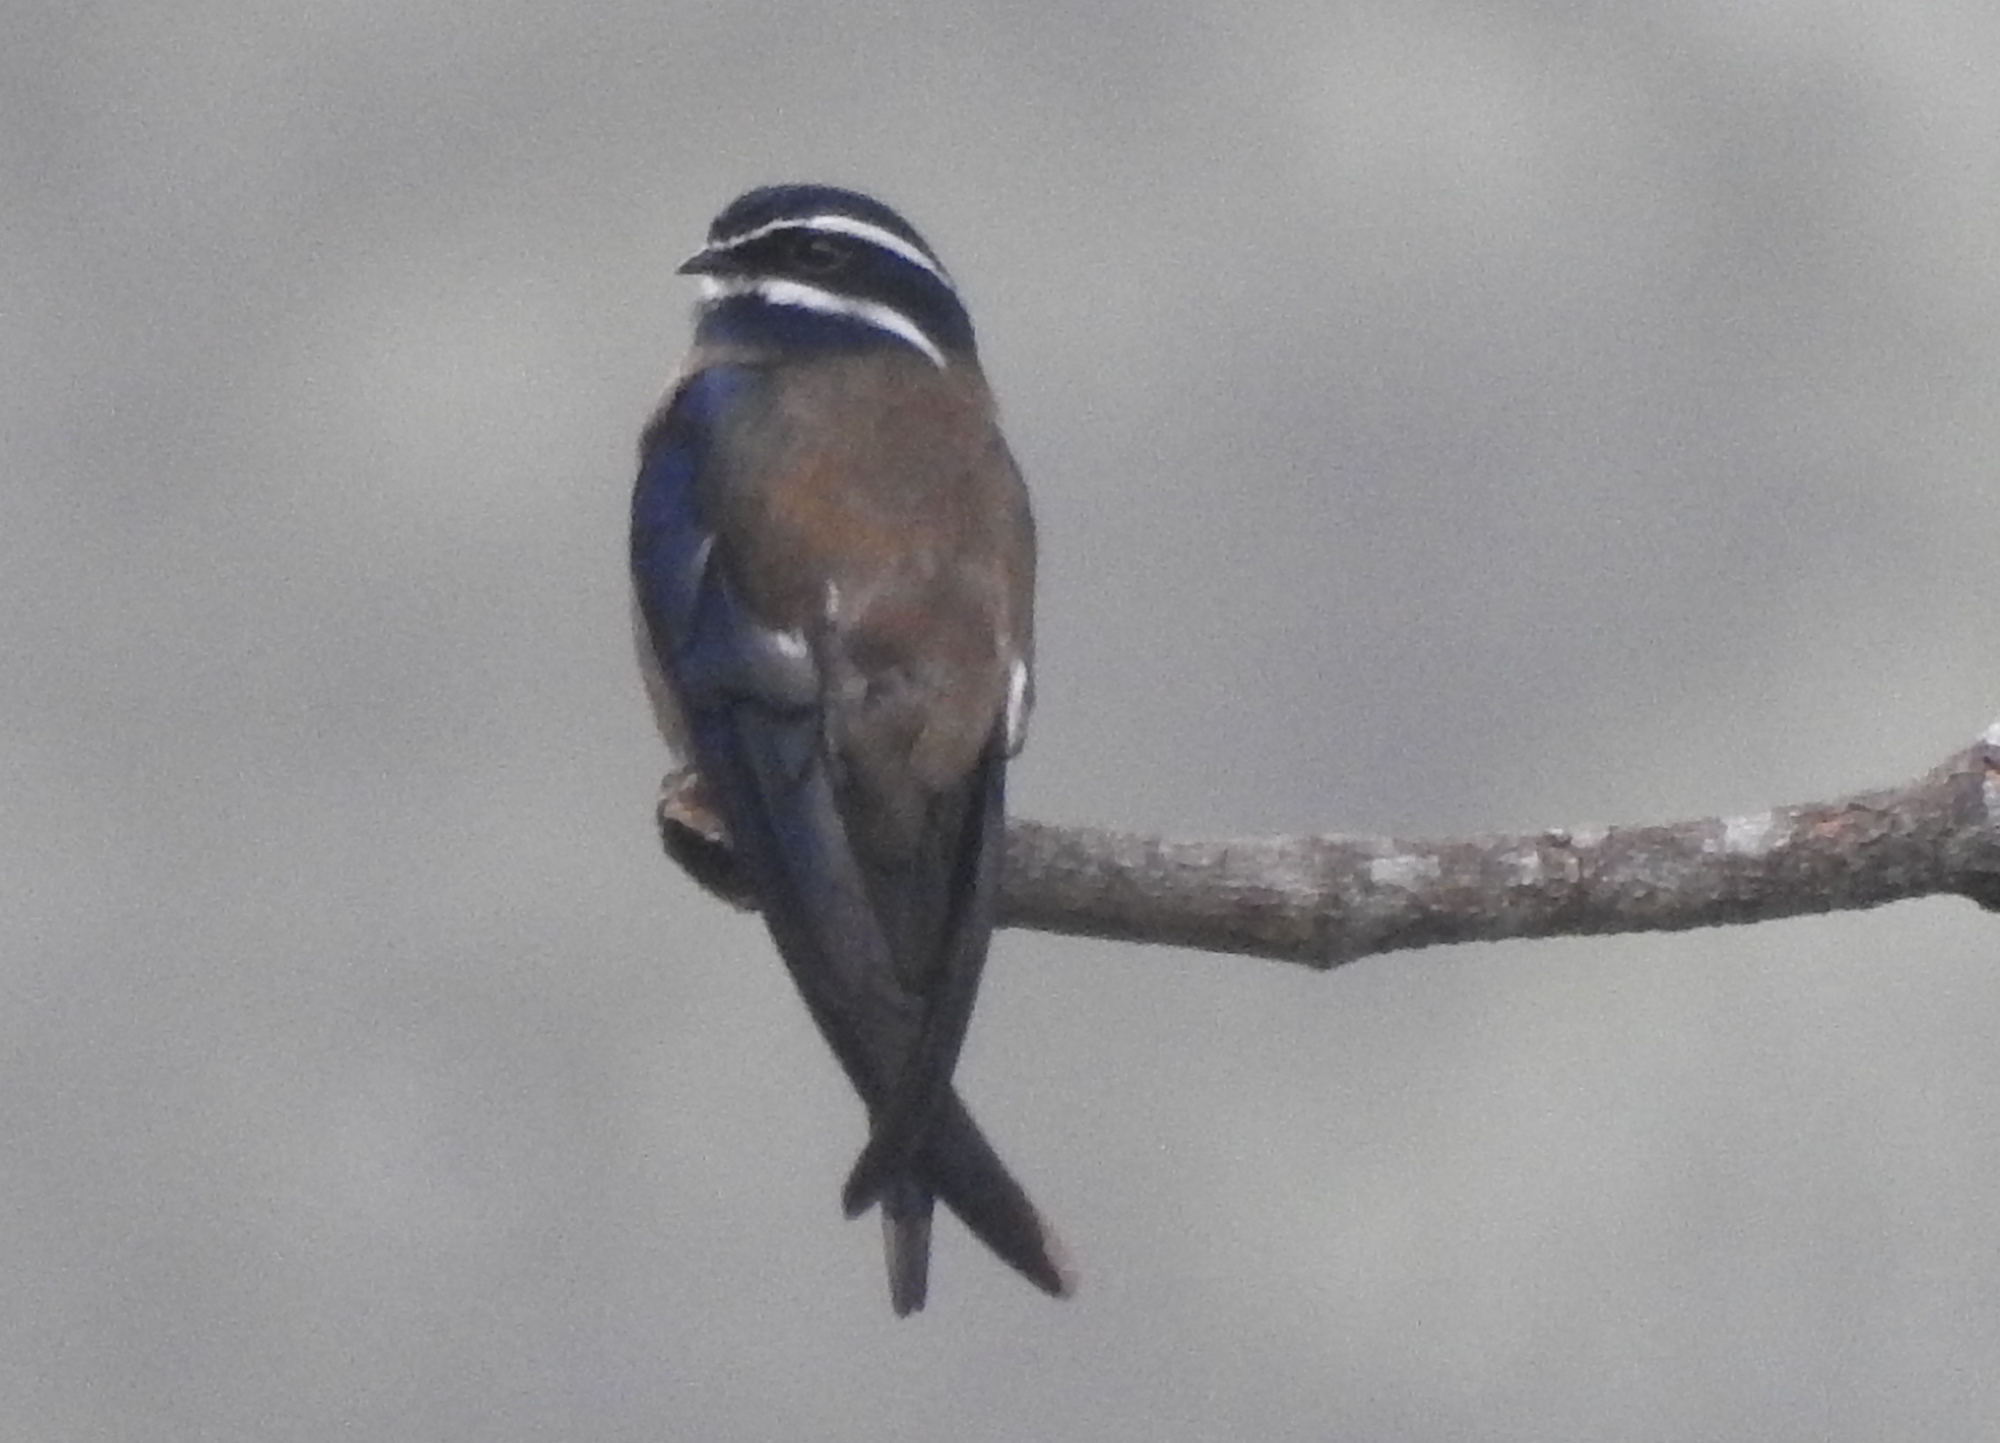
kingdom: Animalia
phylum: Chordata
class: Aves
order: Apodiformes
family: Hemiprocnidae
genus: Hemiprocne
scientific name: Hemiprocne comata
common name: Whiskered treeswift
